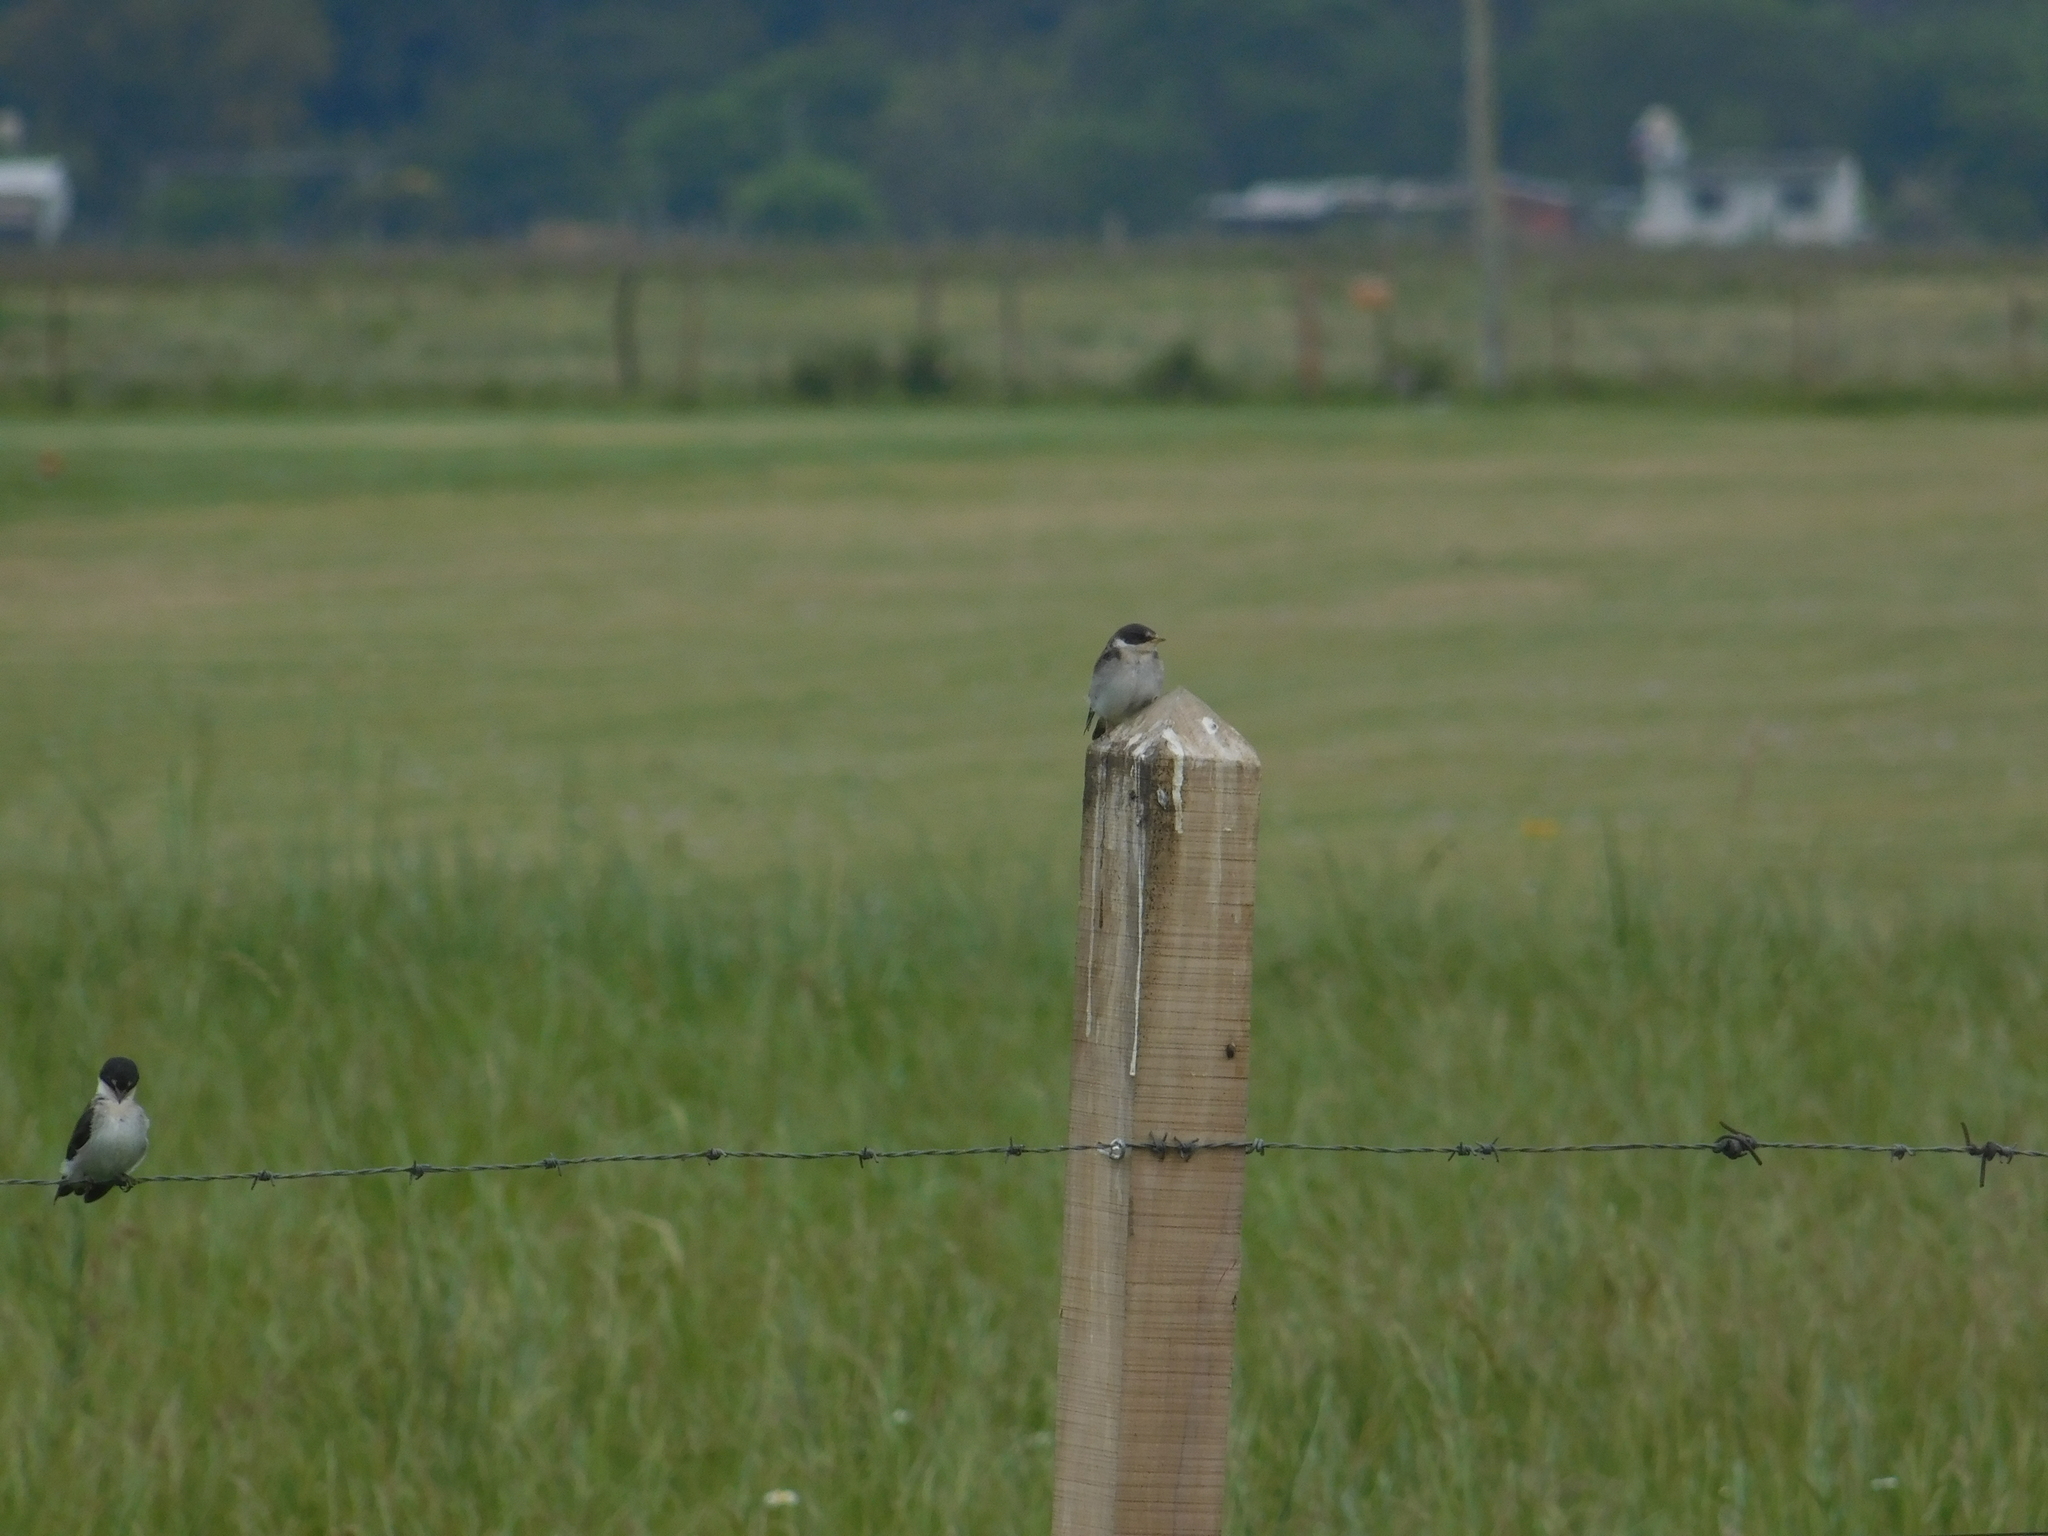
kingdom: Animalia
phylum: Chordata
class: Aves
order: Passeriformes
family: Hirundinidae
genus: Tachycineta
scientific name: Tachycineta leucorrhoa
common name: White-rumped swallow
